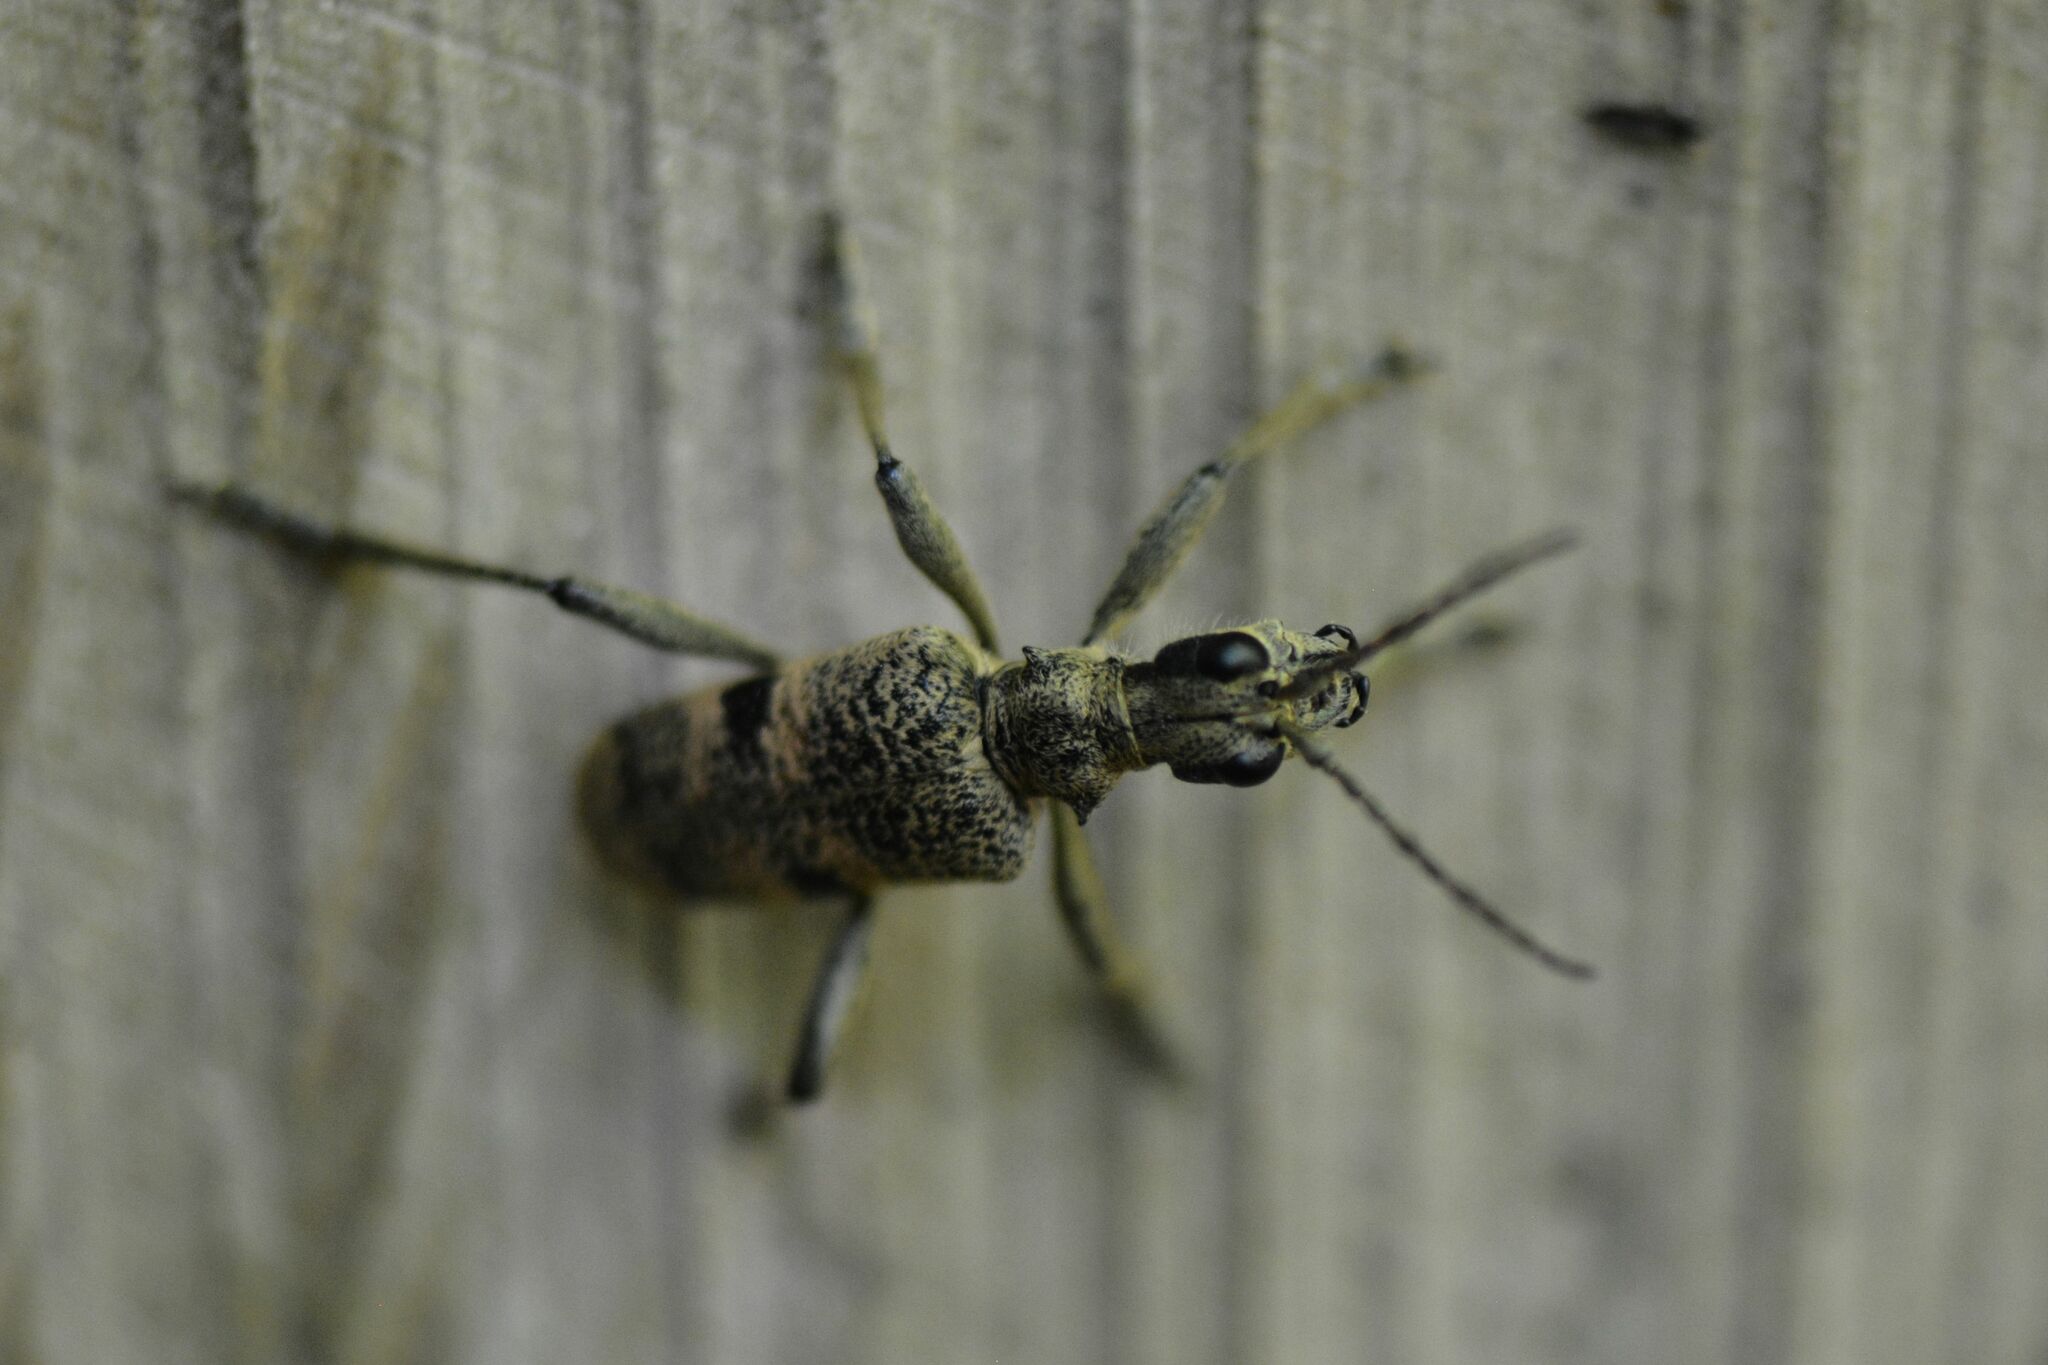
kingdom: Animalia
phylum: Arthropoda
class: Insecta
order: Coleoptera
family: Cerambycidae
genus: Rhagium
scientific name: Rhagium mordax
